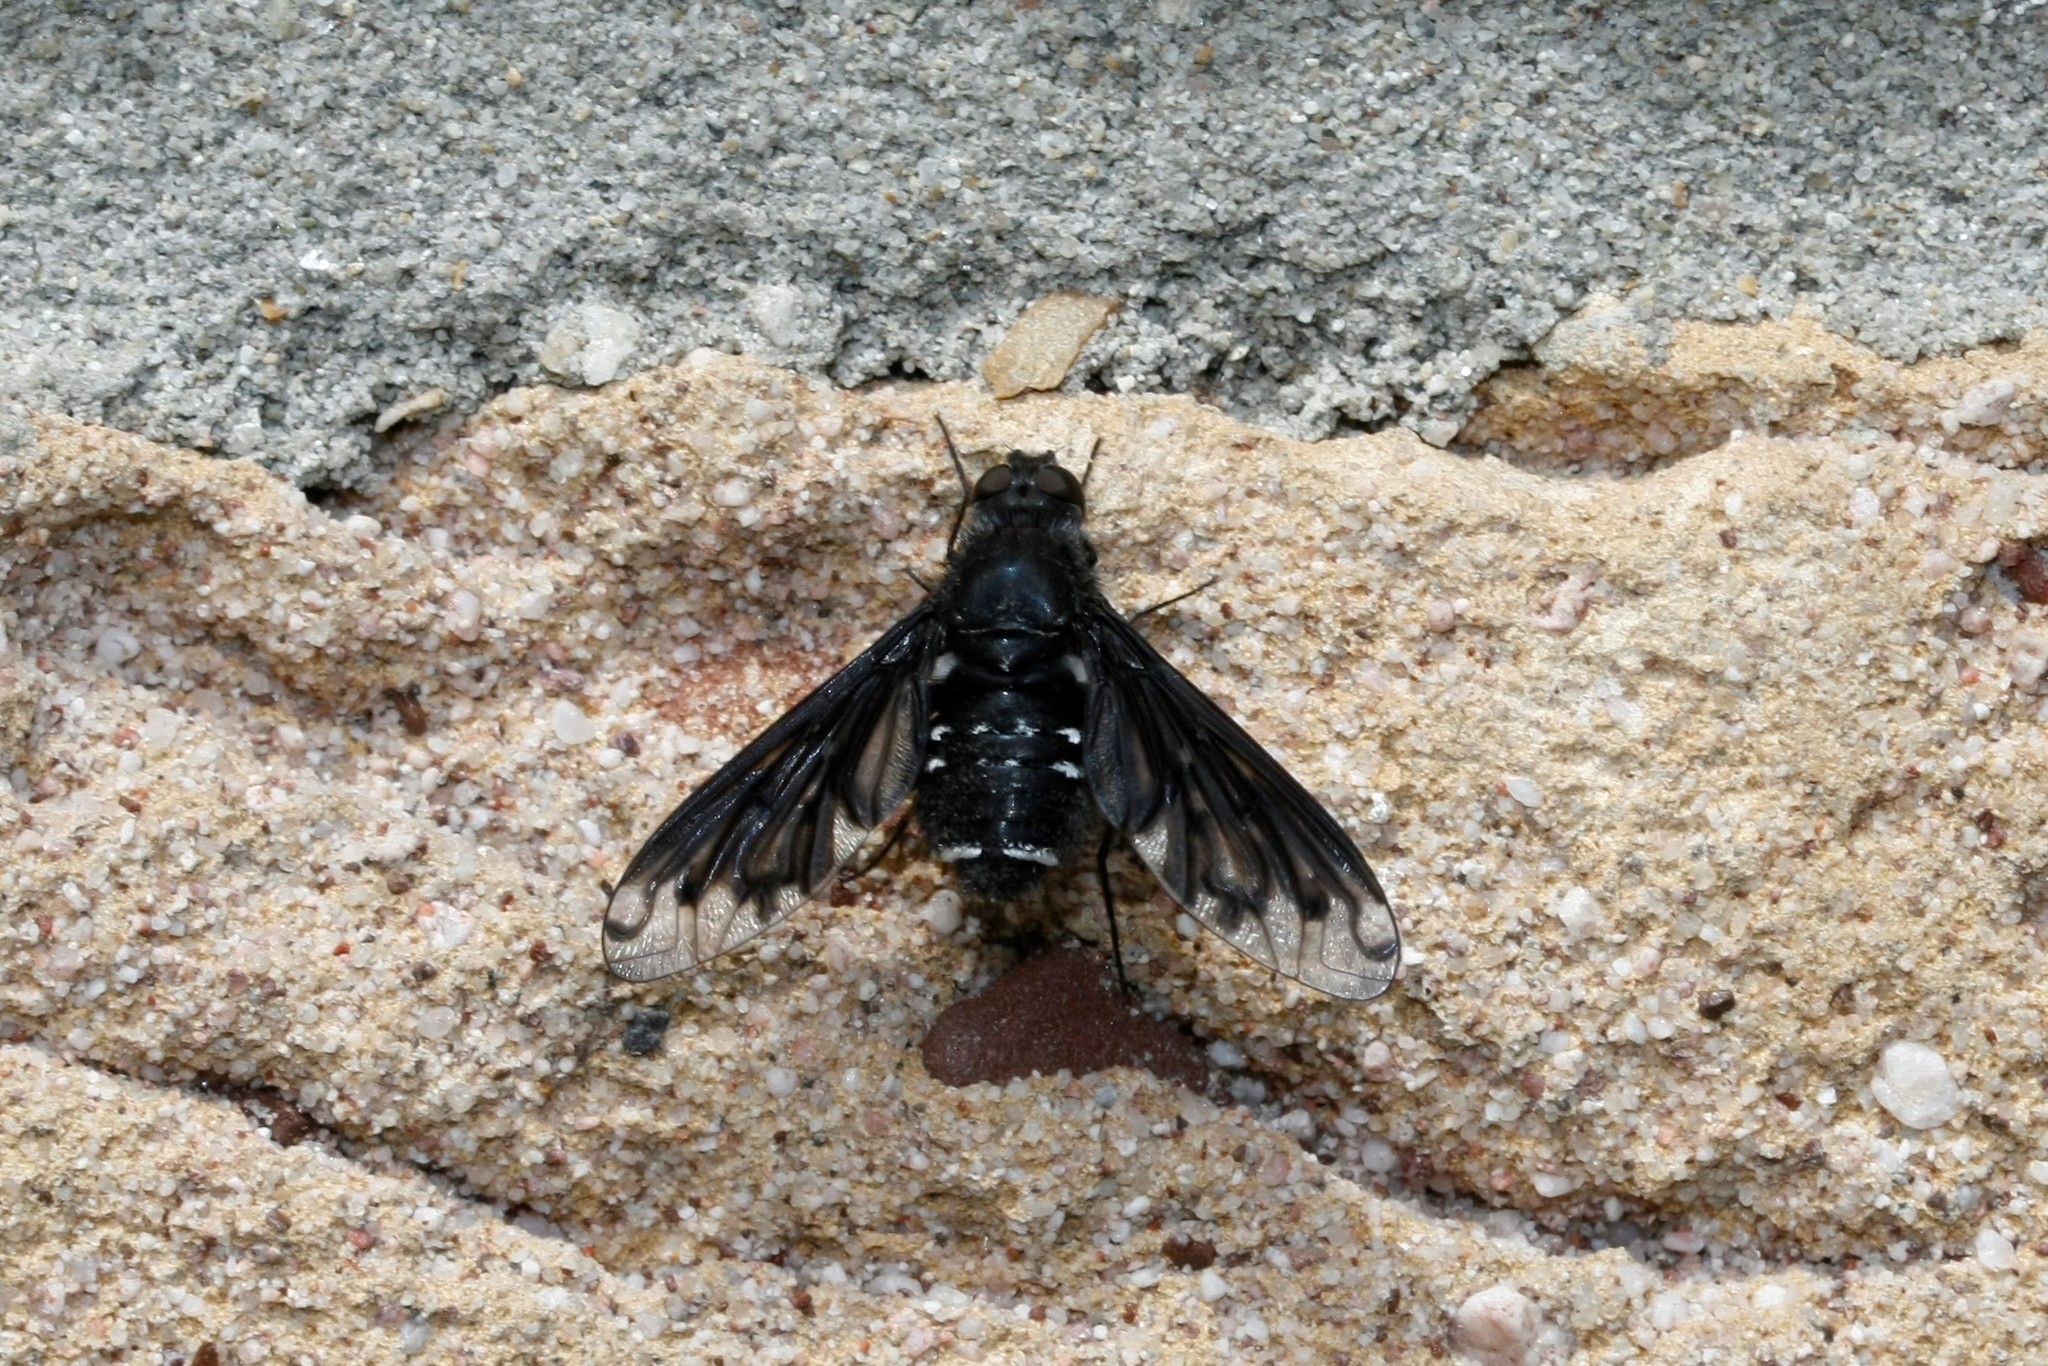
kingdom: Animalia
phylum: Arthropoda
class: Insecta
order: Diptera
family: Bombyliidae
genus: Anthrax
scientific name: Anthrax anthrax
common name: Anthracite bee-fly
